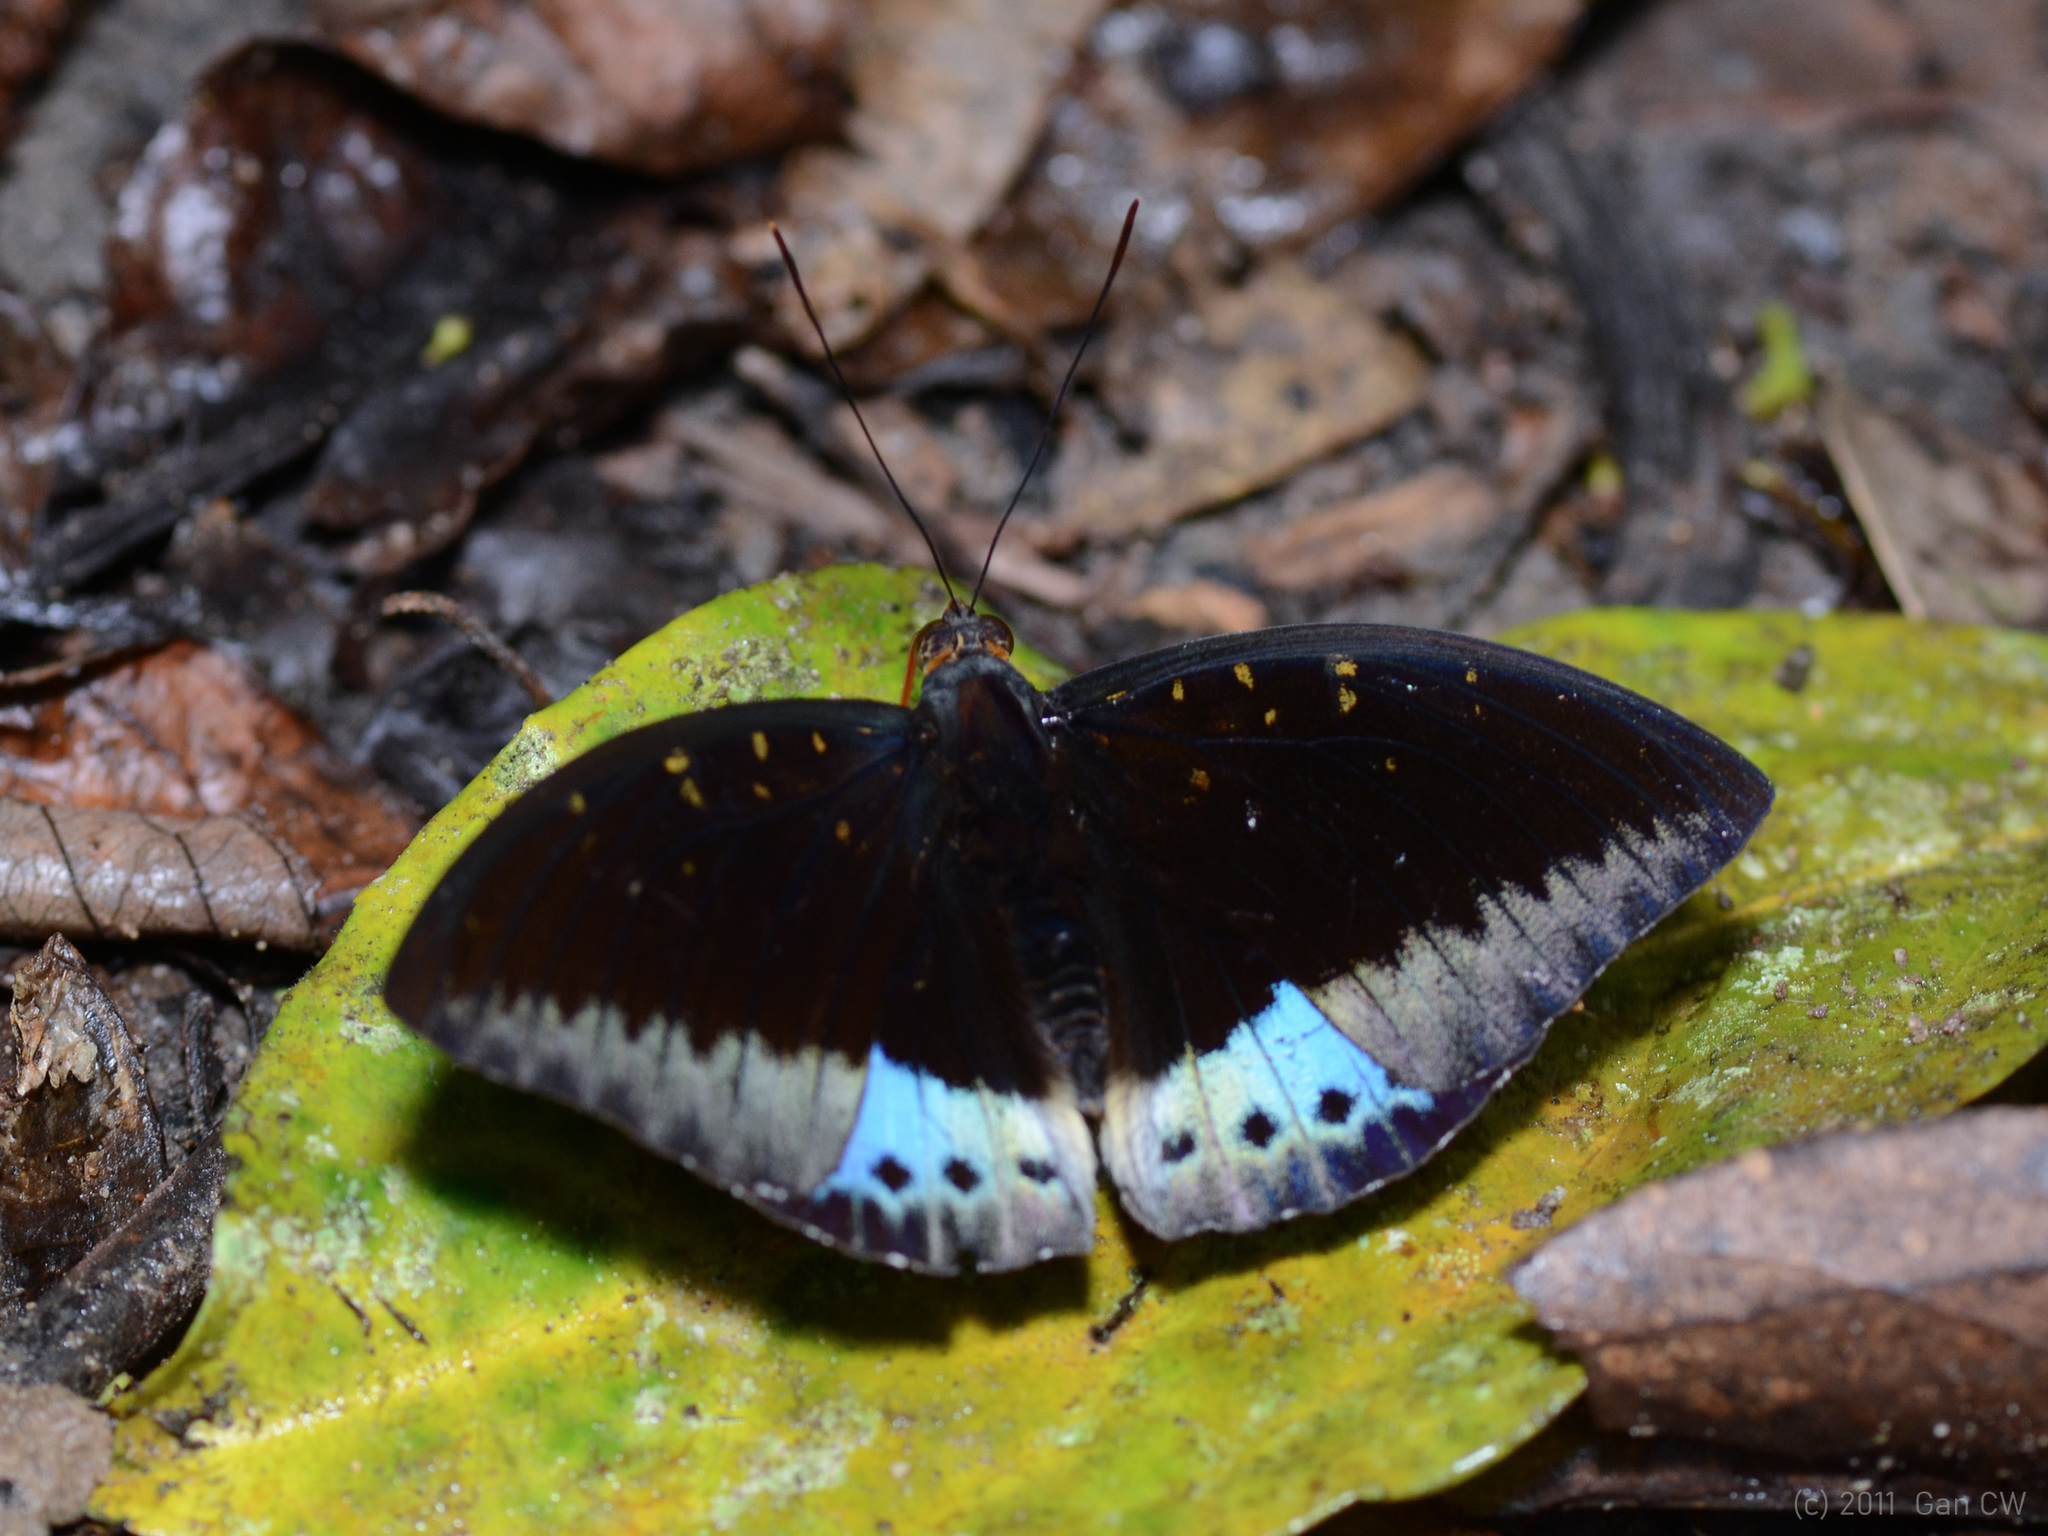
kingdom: Animalia
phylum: Arthropoda
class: Insecta
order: Lepidoptera
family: Nymphalidae
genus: Lexias
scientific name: Lexias pardalis
